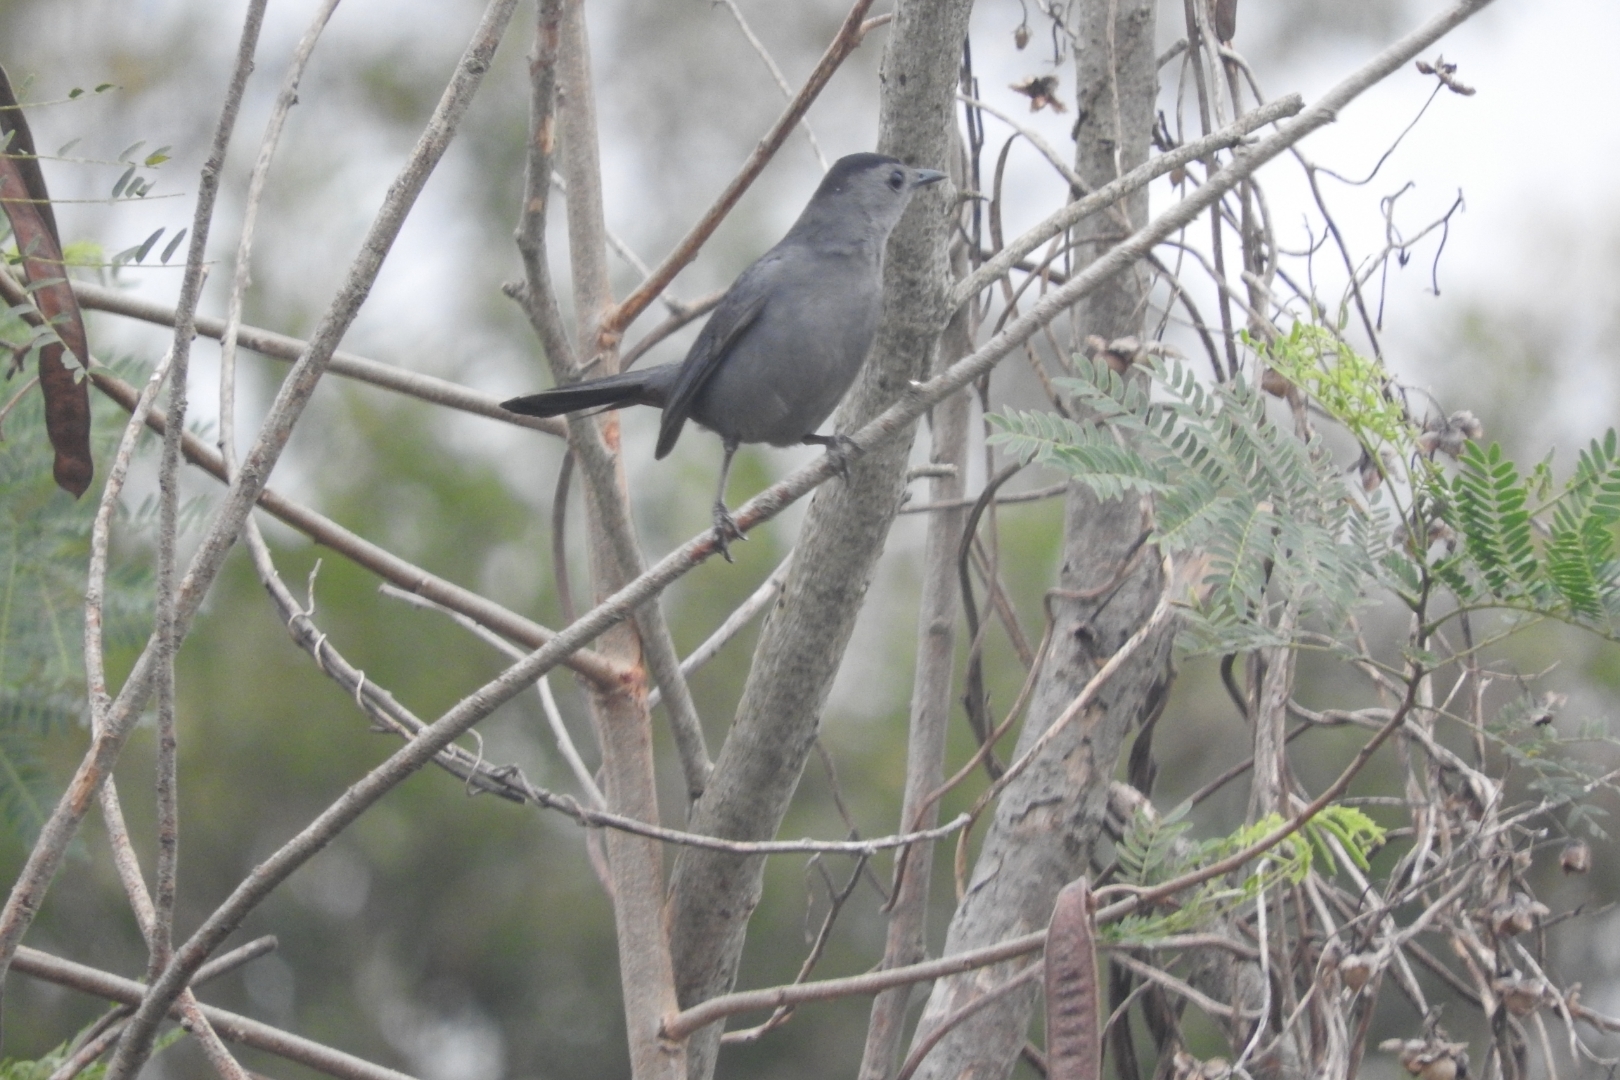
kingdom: Animalia
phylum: Chordata
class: Aves
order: Passeriformes
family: Mimidae
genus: Dumetella
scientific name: Dumetella carolinensis
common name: Gray catbird
